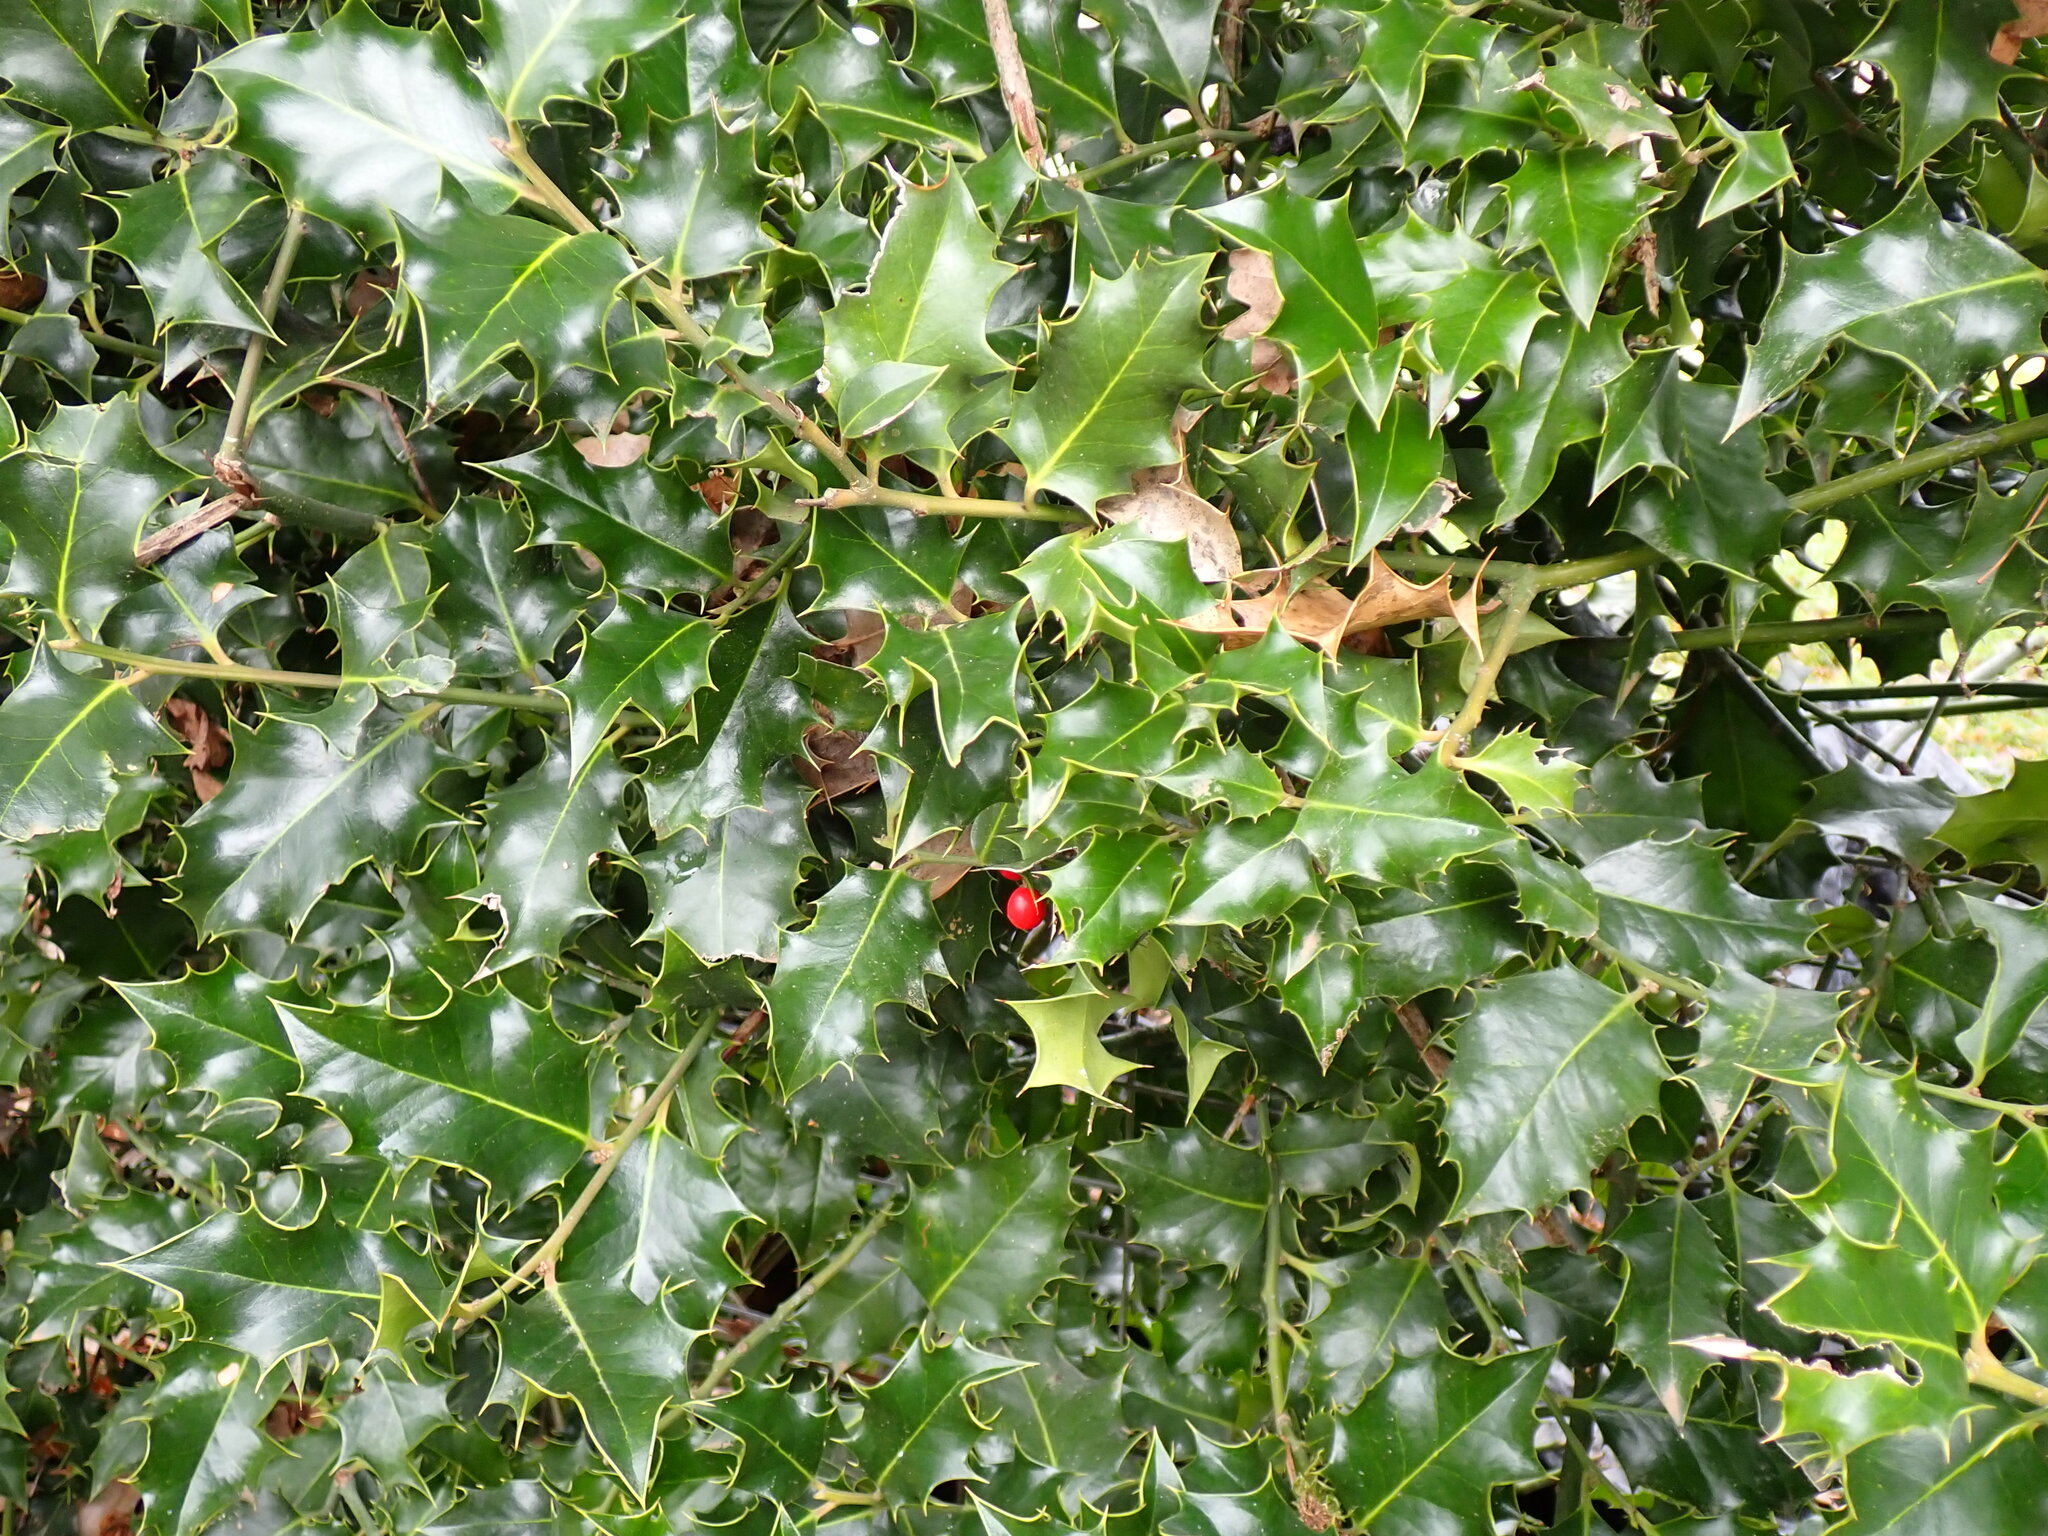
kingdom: Plantae
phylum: Tracheophyta
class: Magnoliopsida
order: Aquifoliales
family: Aquifoliaceae
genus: Ilex
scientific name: Ilex aquifolium
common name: English holly
